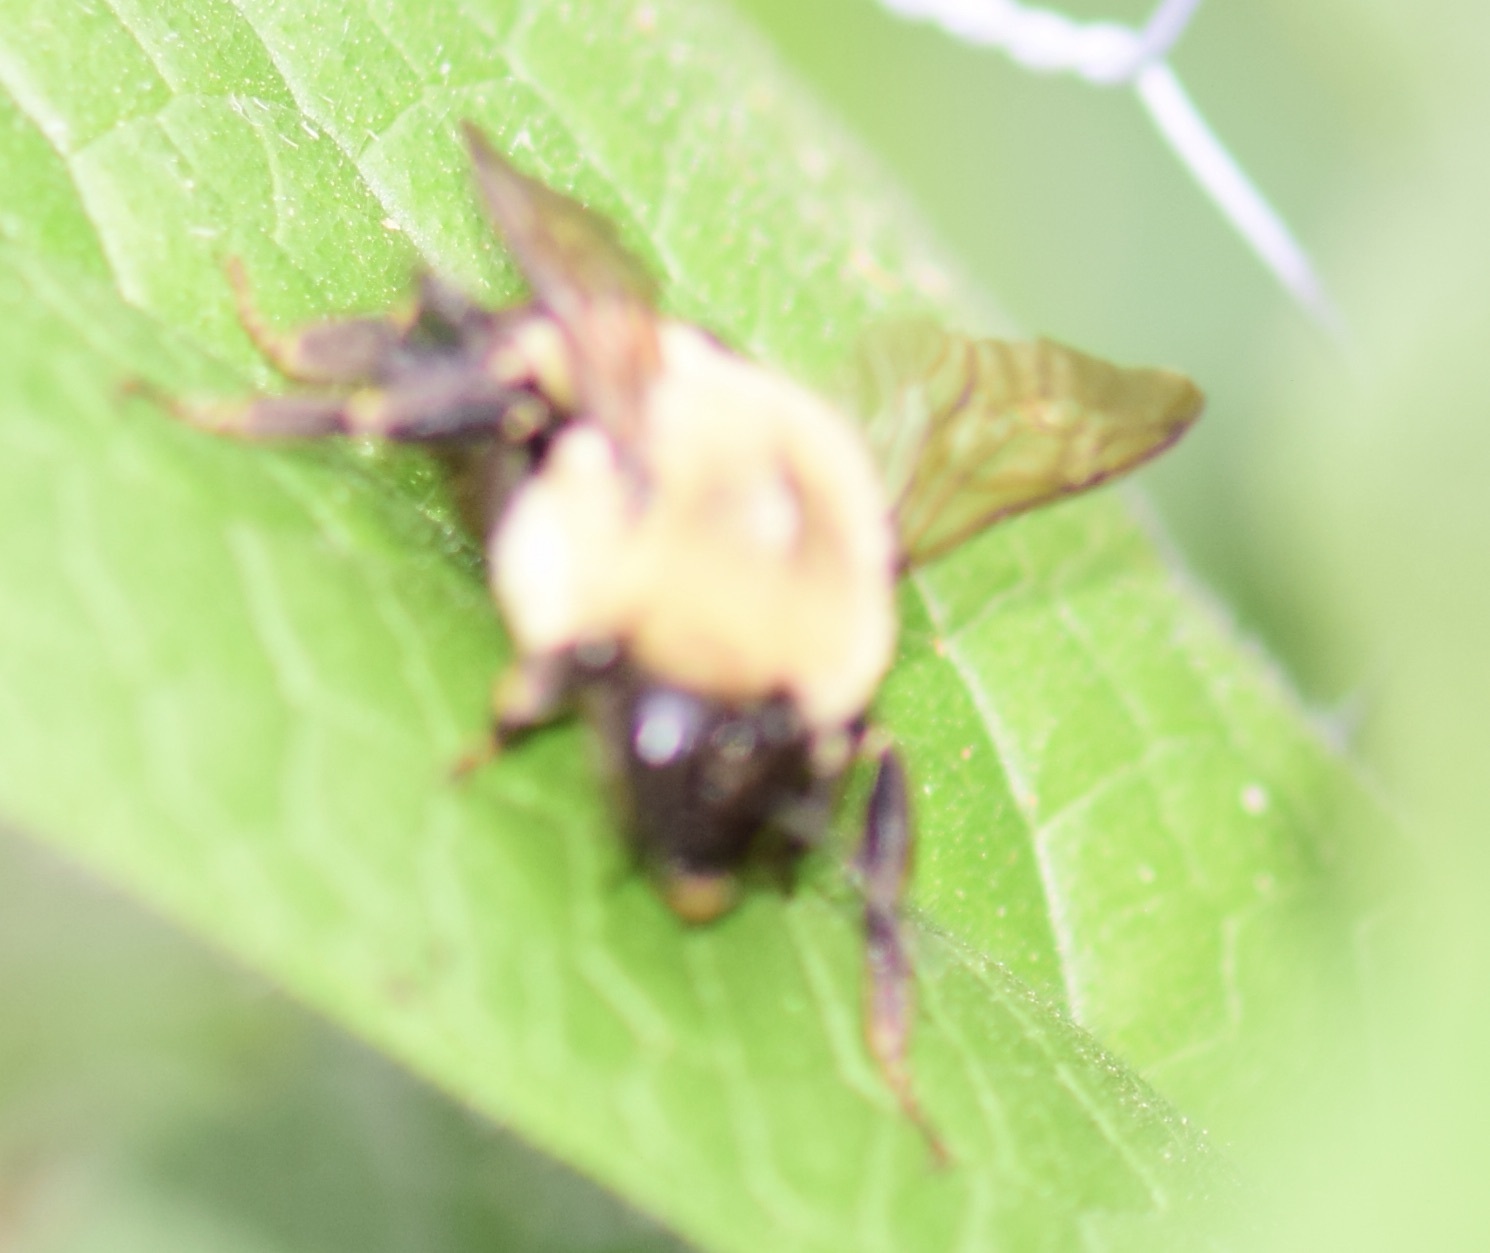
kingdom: Animalia
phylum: Arthropoda
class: Insecta
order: Hymenoptera
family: Apidae
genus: Bombus
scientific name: Bombus impatiens
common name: Common eastern bumble bee
